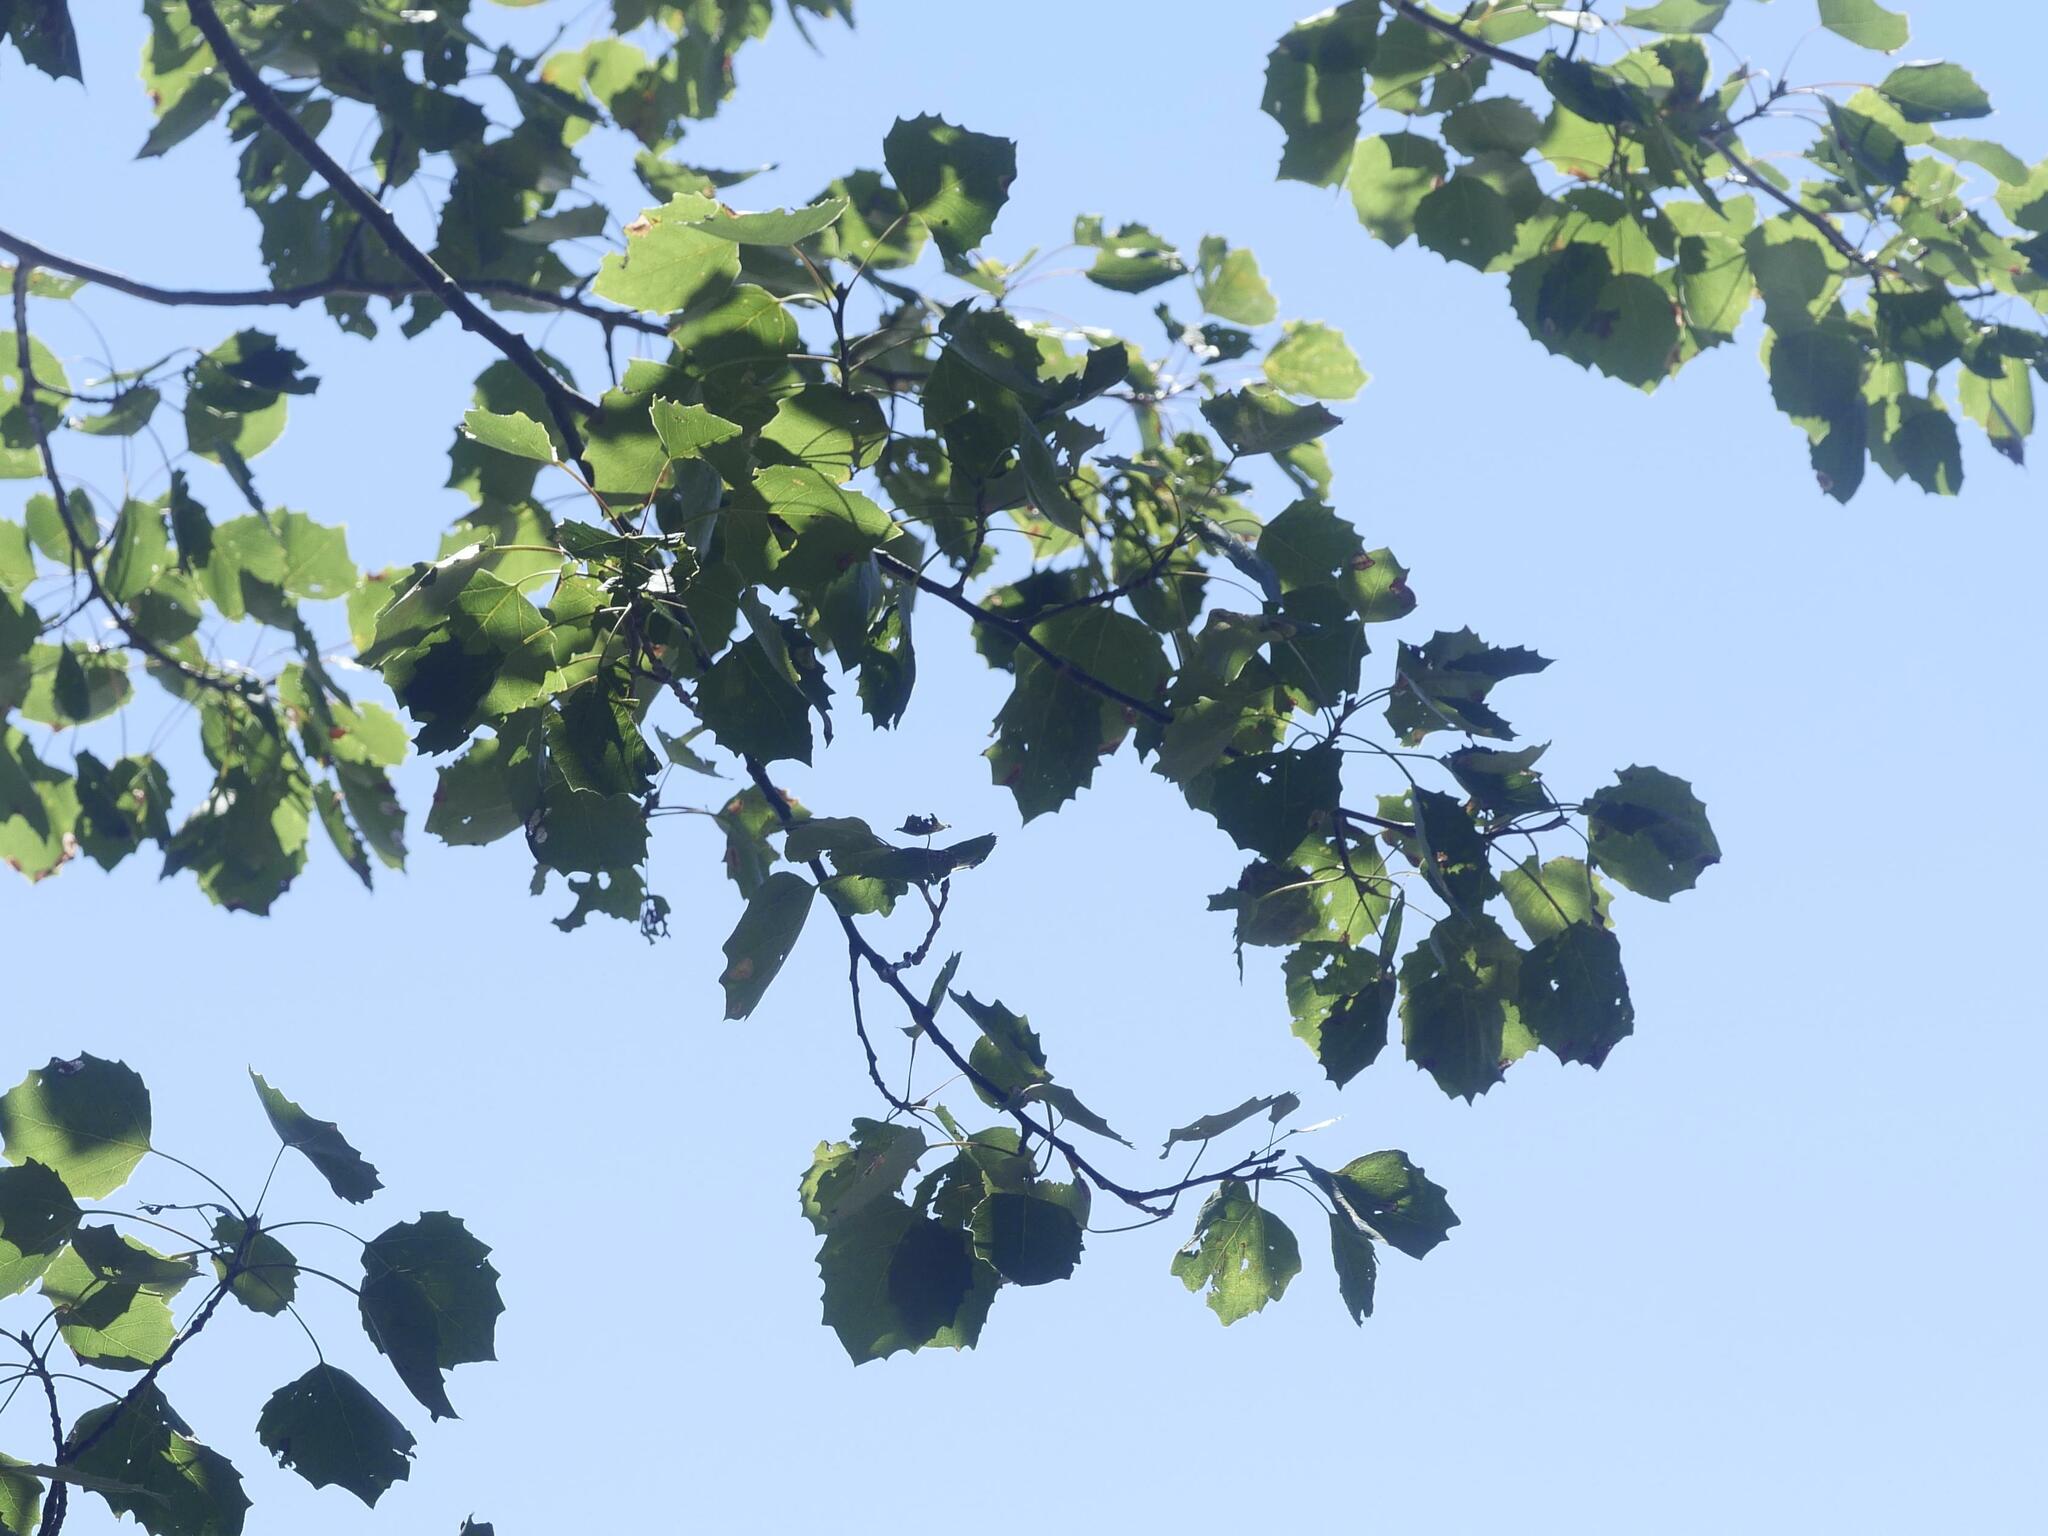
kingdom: Plantae
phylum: Tracheophyta
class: Magnoliopsida
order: Malpighiales
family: Salicaceae
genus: Populus
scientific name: Populus grandidentata
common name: Bigtooth aspen
